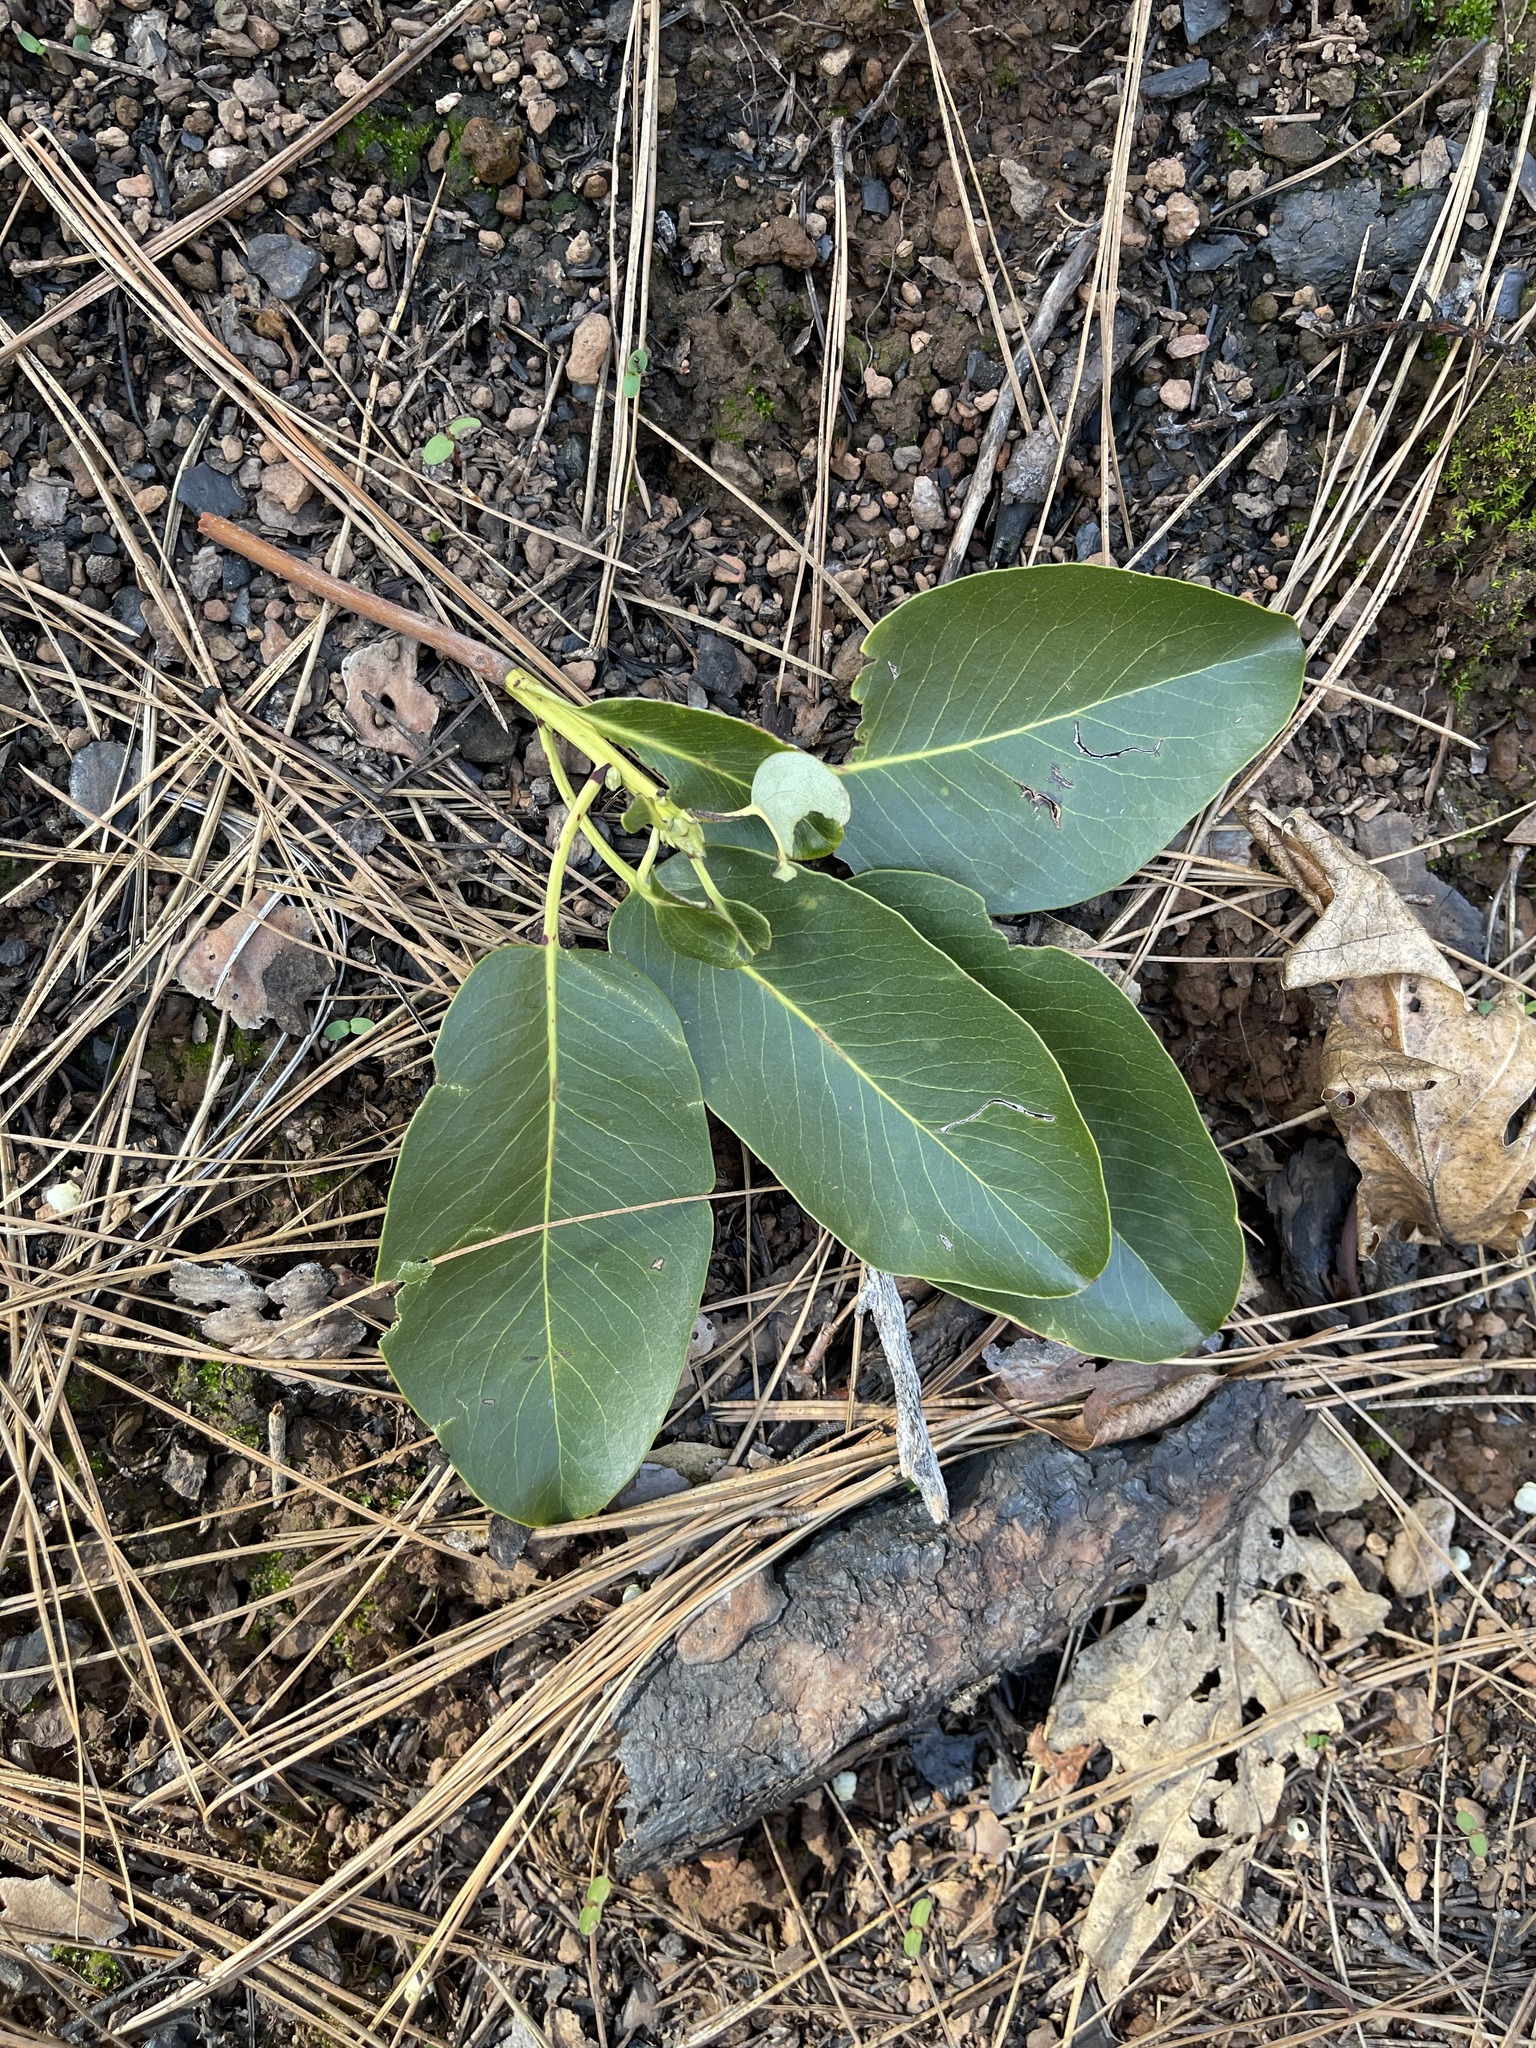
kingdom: Plantae
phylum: Tracheophyta
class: Magnoliopsida
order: Ericales
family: Ericaceae
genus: Arbutus
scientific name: Arbutus menziesii
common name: Pacific madrone
